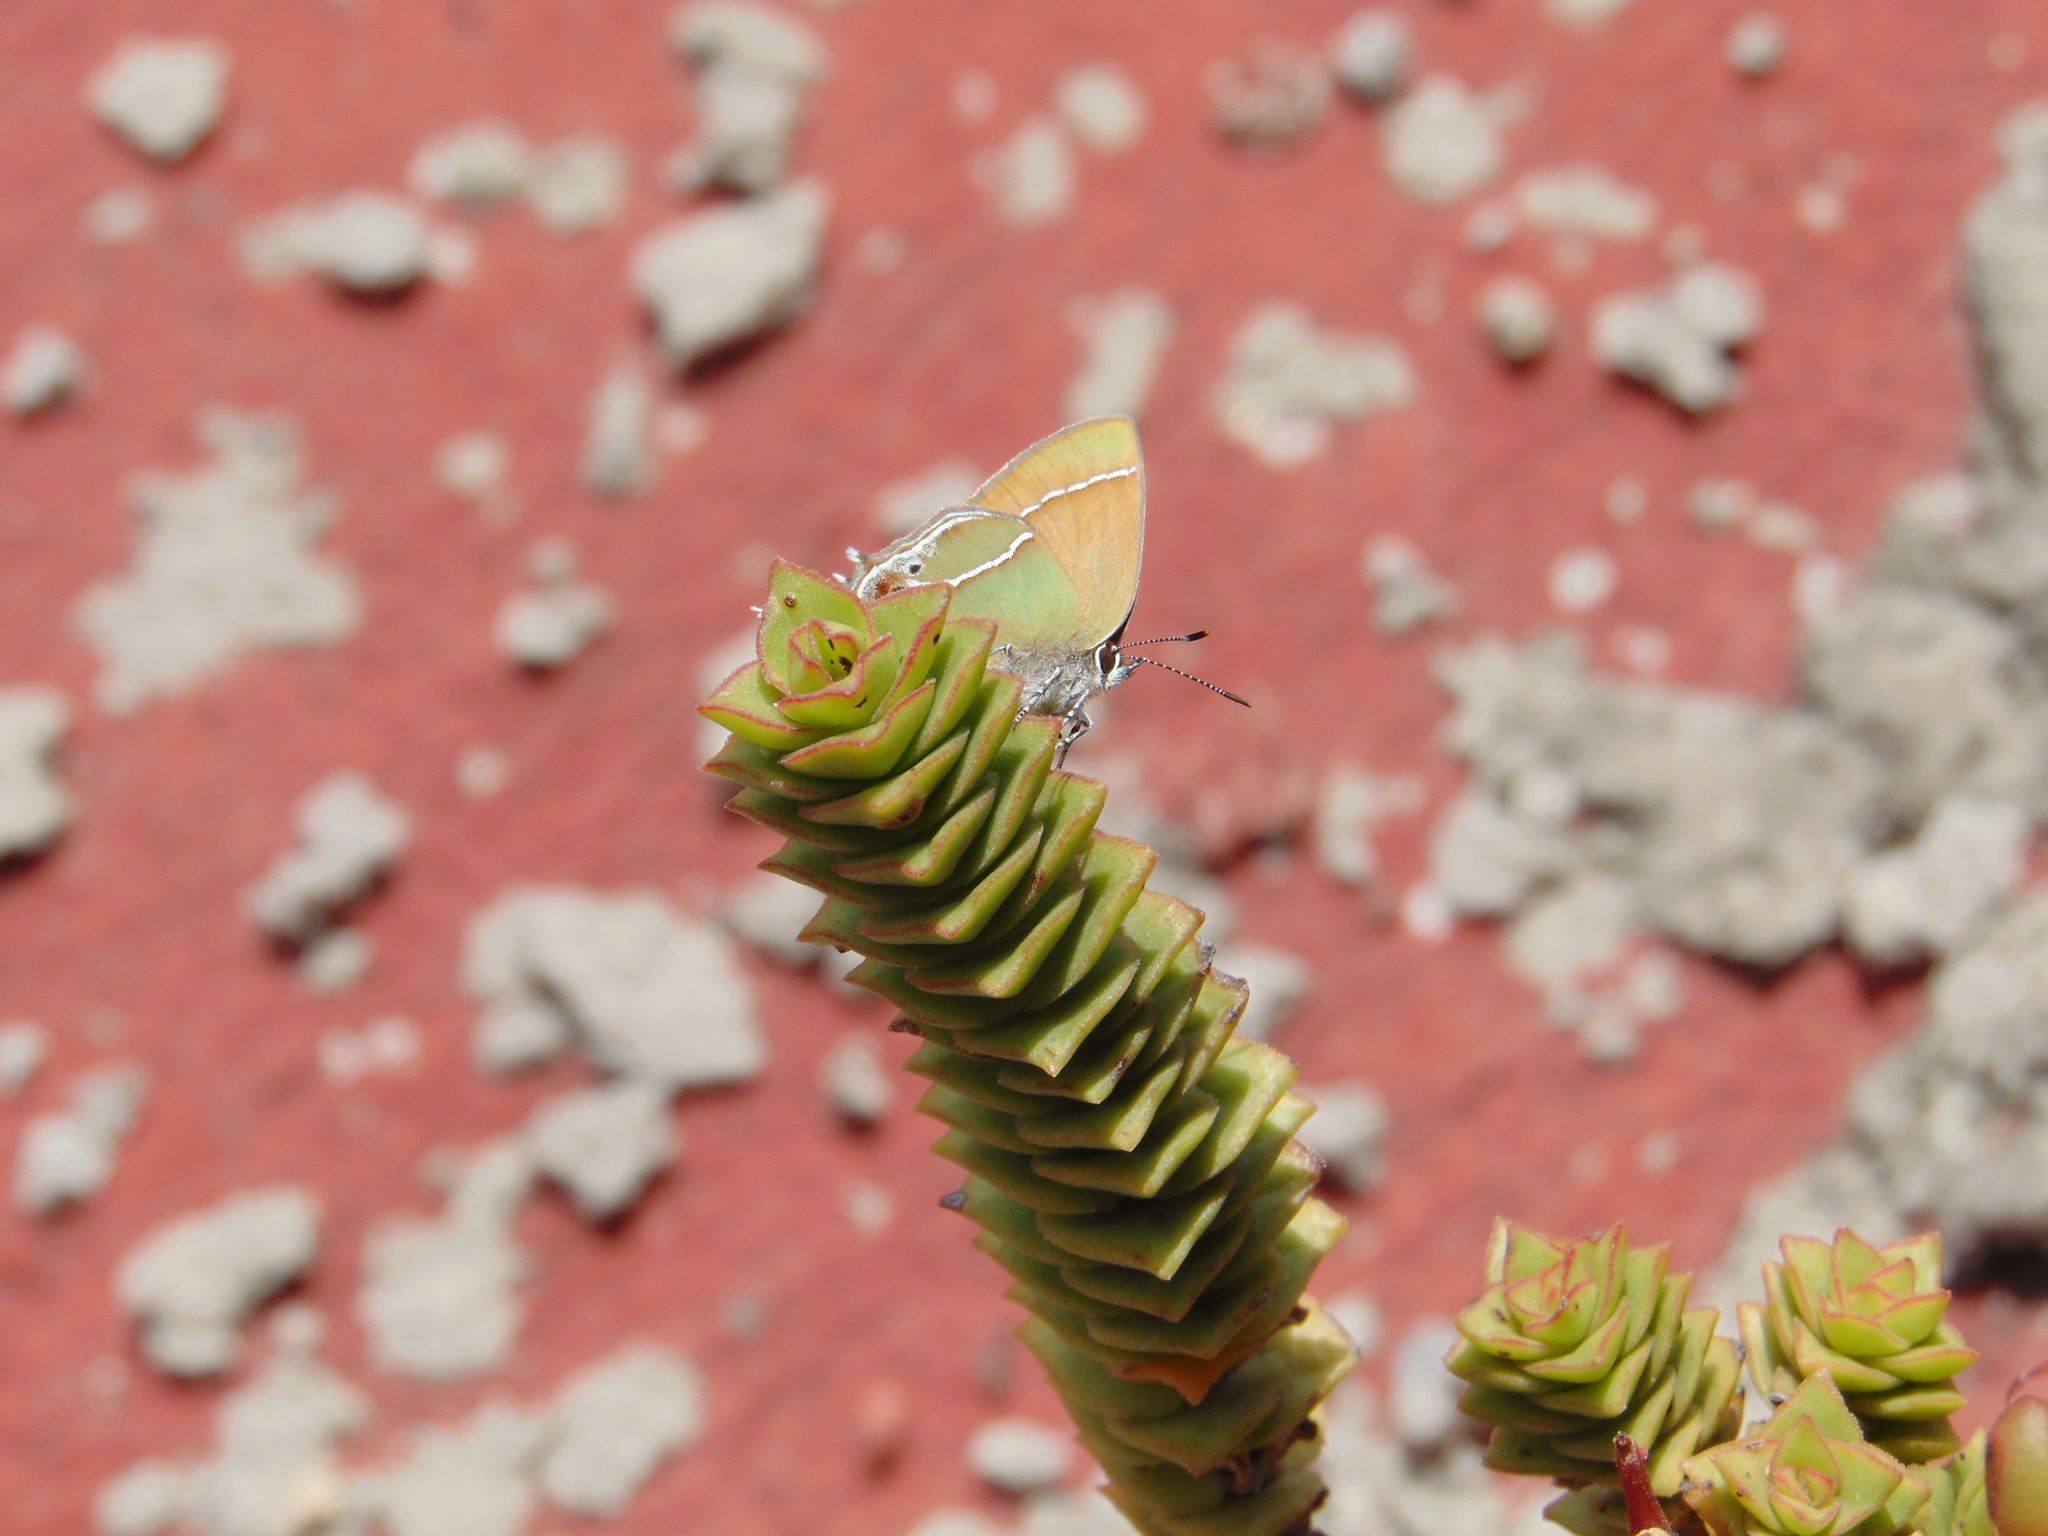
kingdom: Animalia
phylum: Arthropoda
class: Insecta
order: Lepidoptera
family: Lycaenidae
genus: Xamia
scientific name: Xamia xami
